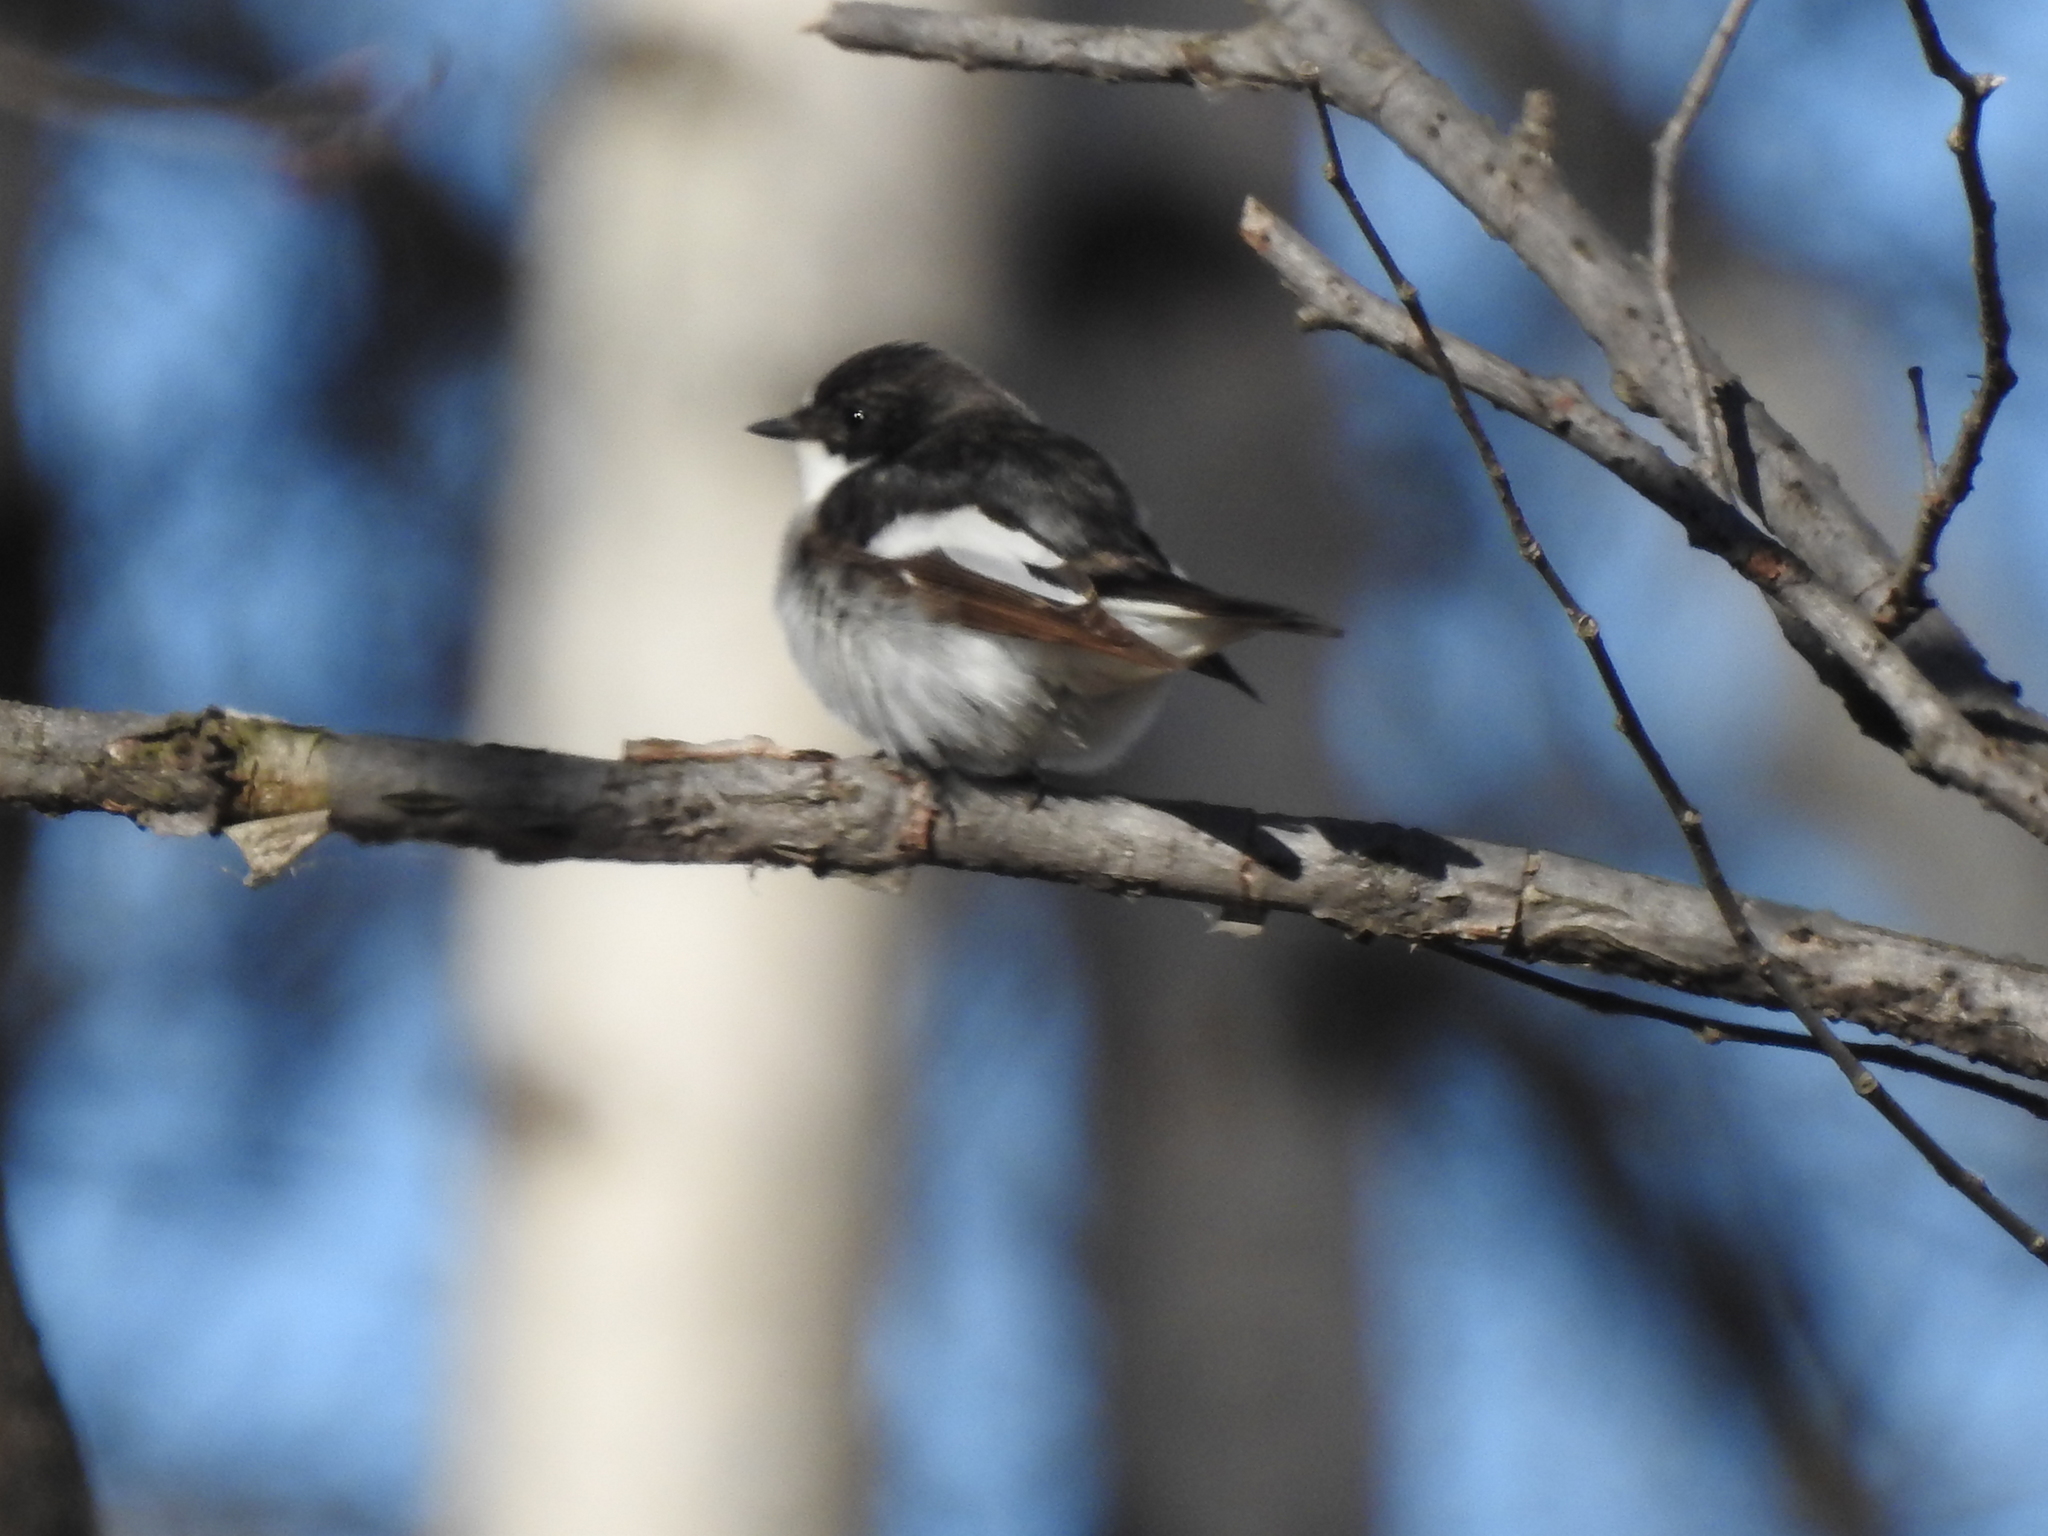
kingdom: Animalia
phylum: Chordata
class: Aves
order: Passeriformes
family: Muscicapidae
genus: Ficedula
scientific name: Ficedula hypoleuca
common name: European pied flycatcher
